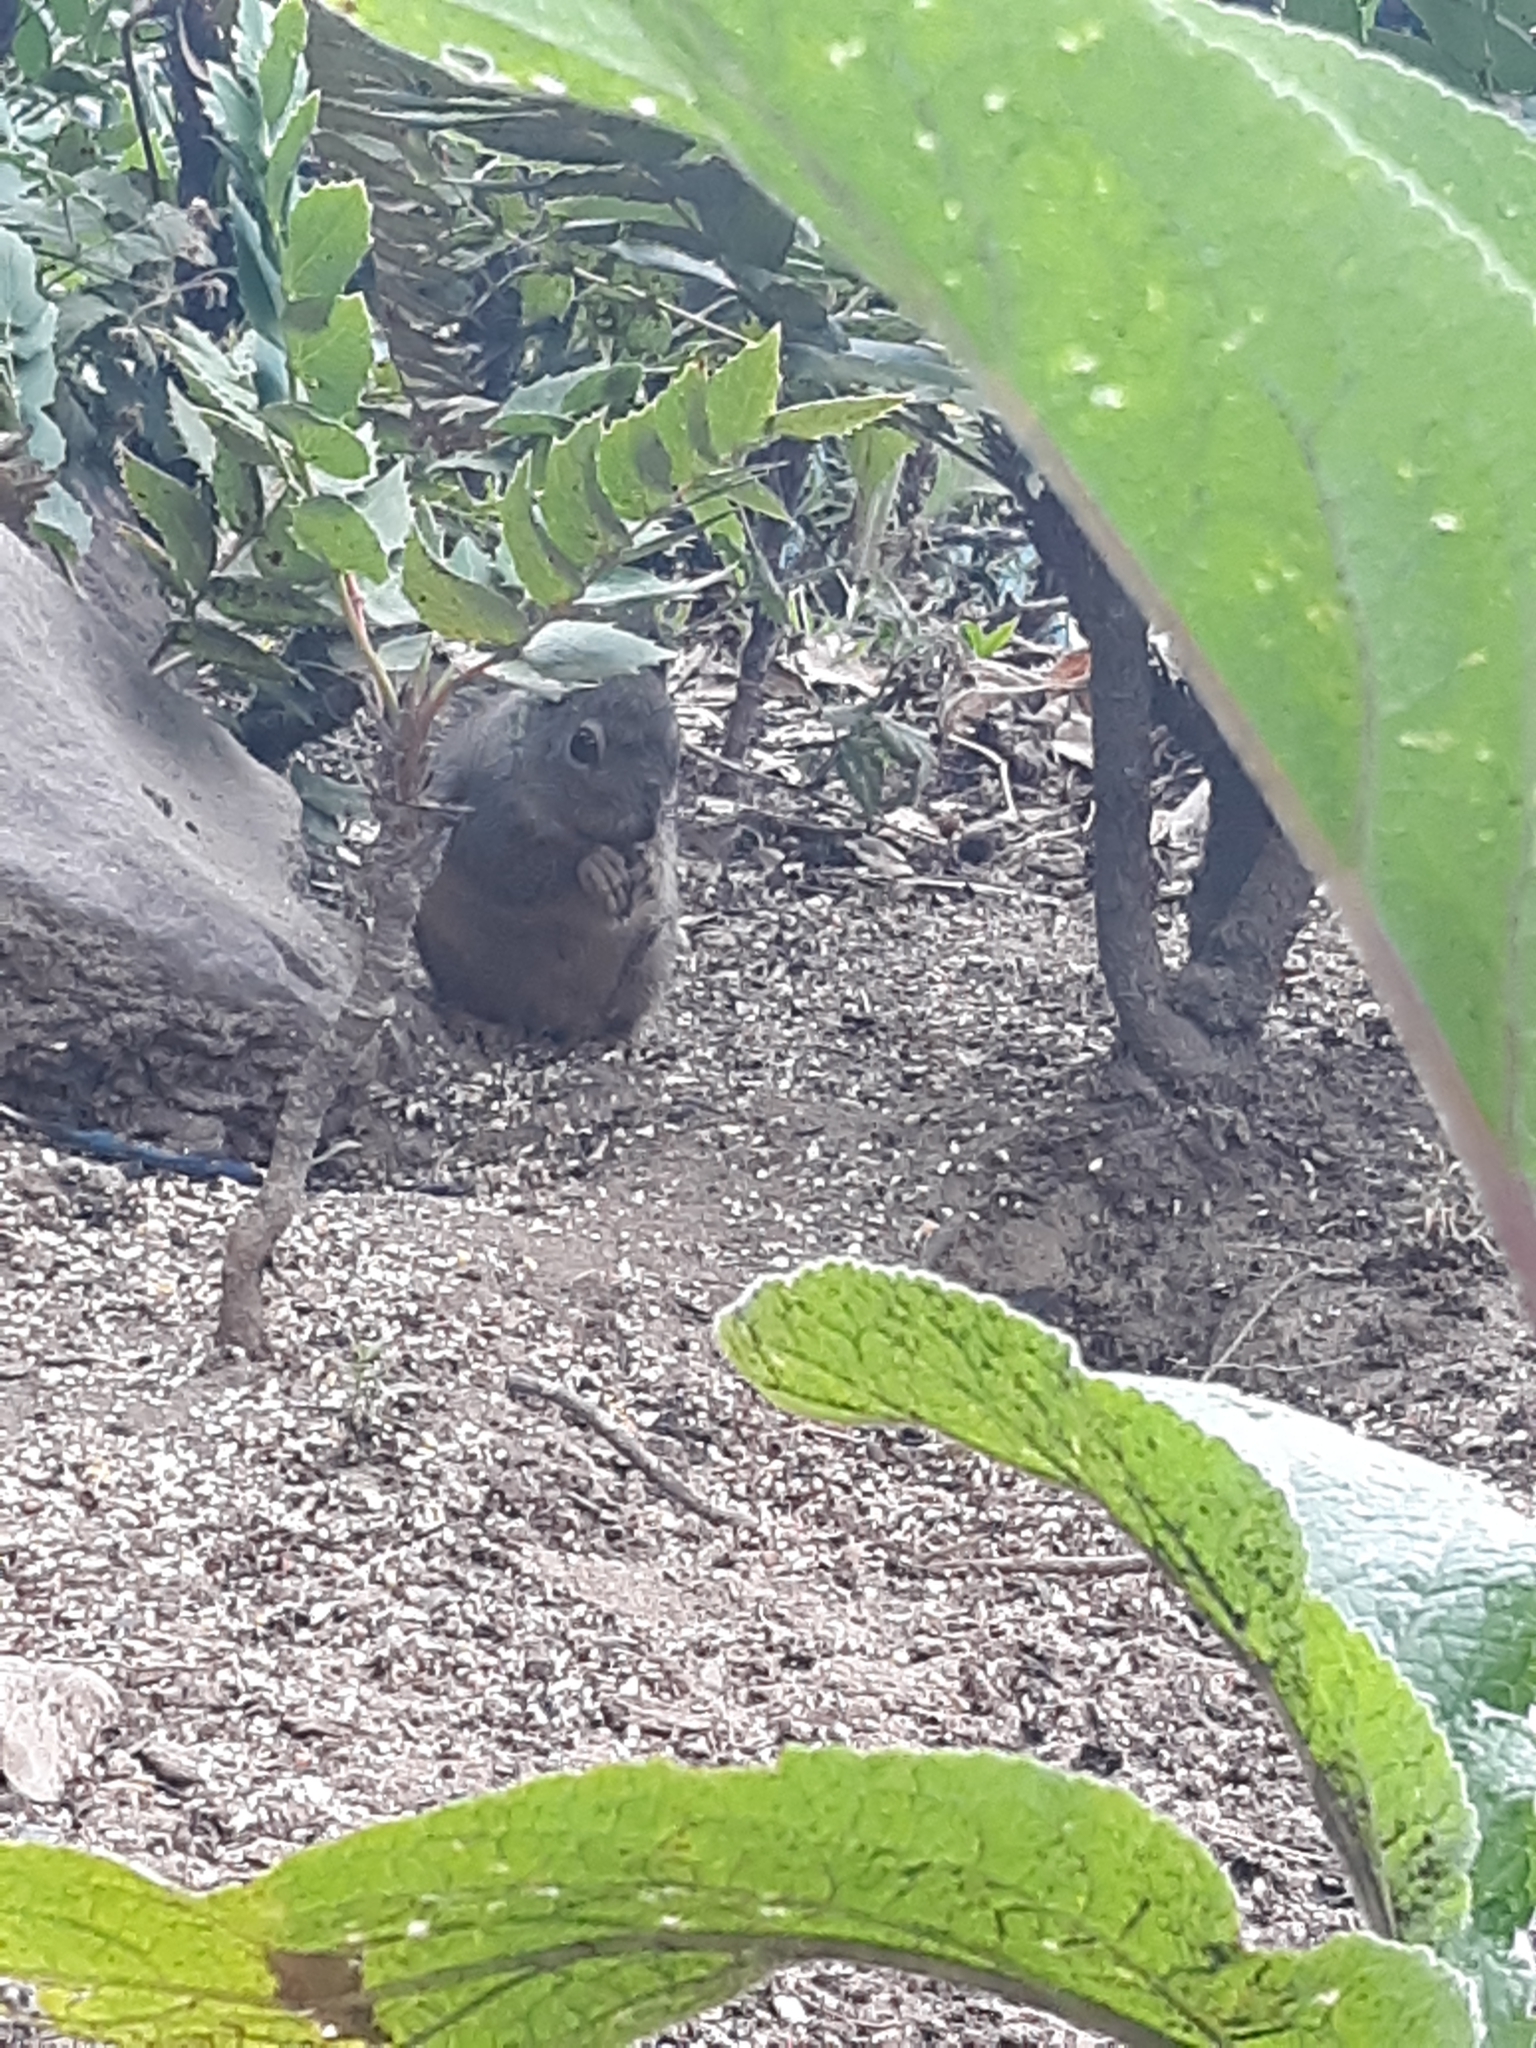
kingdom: Animalia
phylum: Chordata
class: Mammalia
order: Rodentia
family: Sciuridae
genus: Tamiasciurus
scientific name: Tamiasciurus douglasii
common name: Douglas's squirrel
